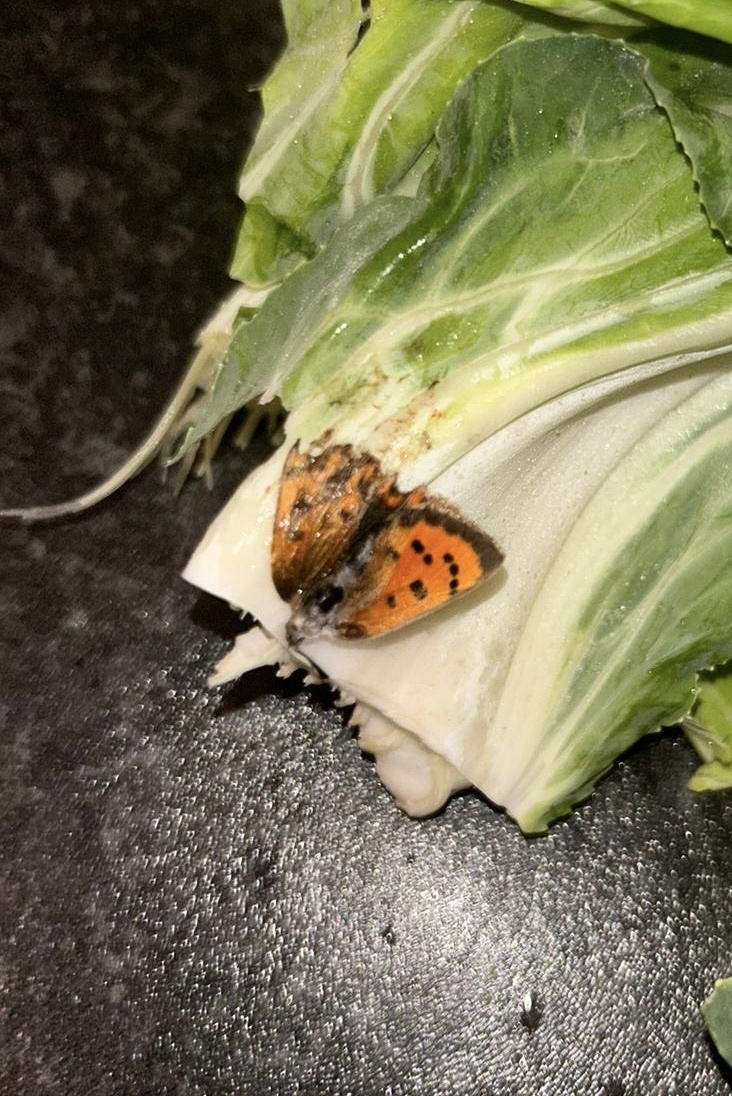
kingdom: Animalia
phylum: Arthropoda
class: Insecta
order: Lepidoptera
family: Lycaenidae
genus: Lycaena
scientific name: Lycaena phlaeas
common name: Small copper
